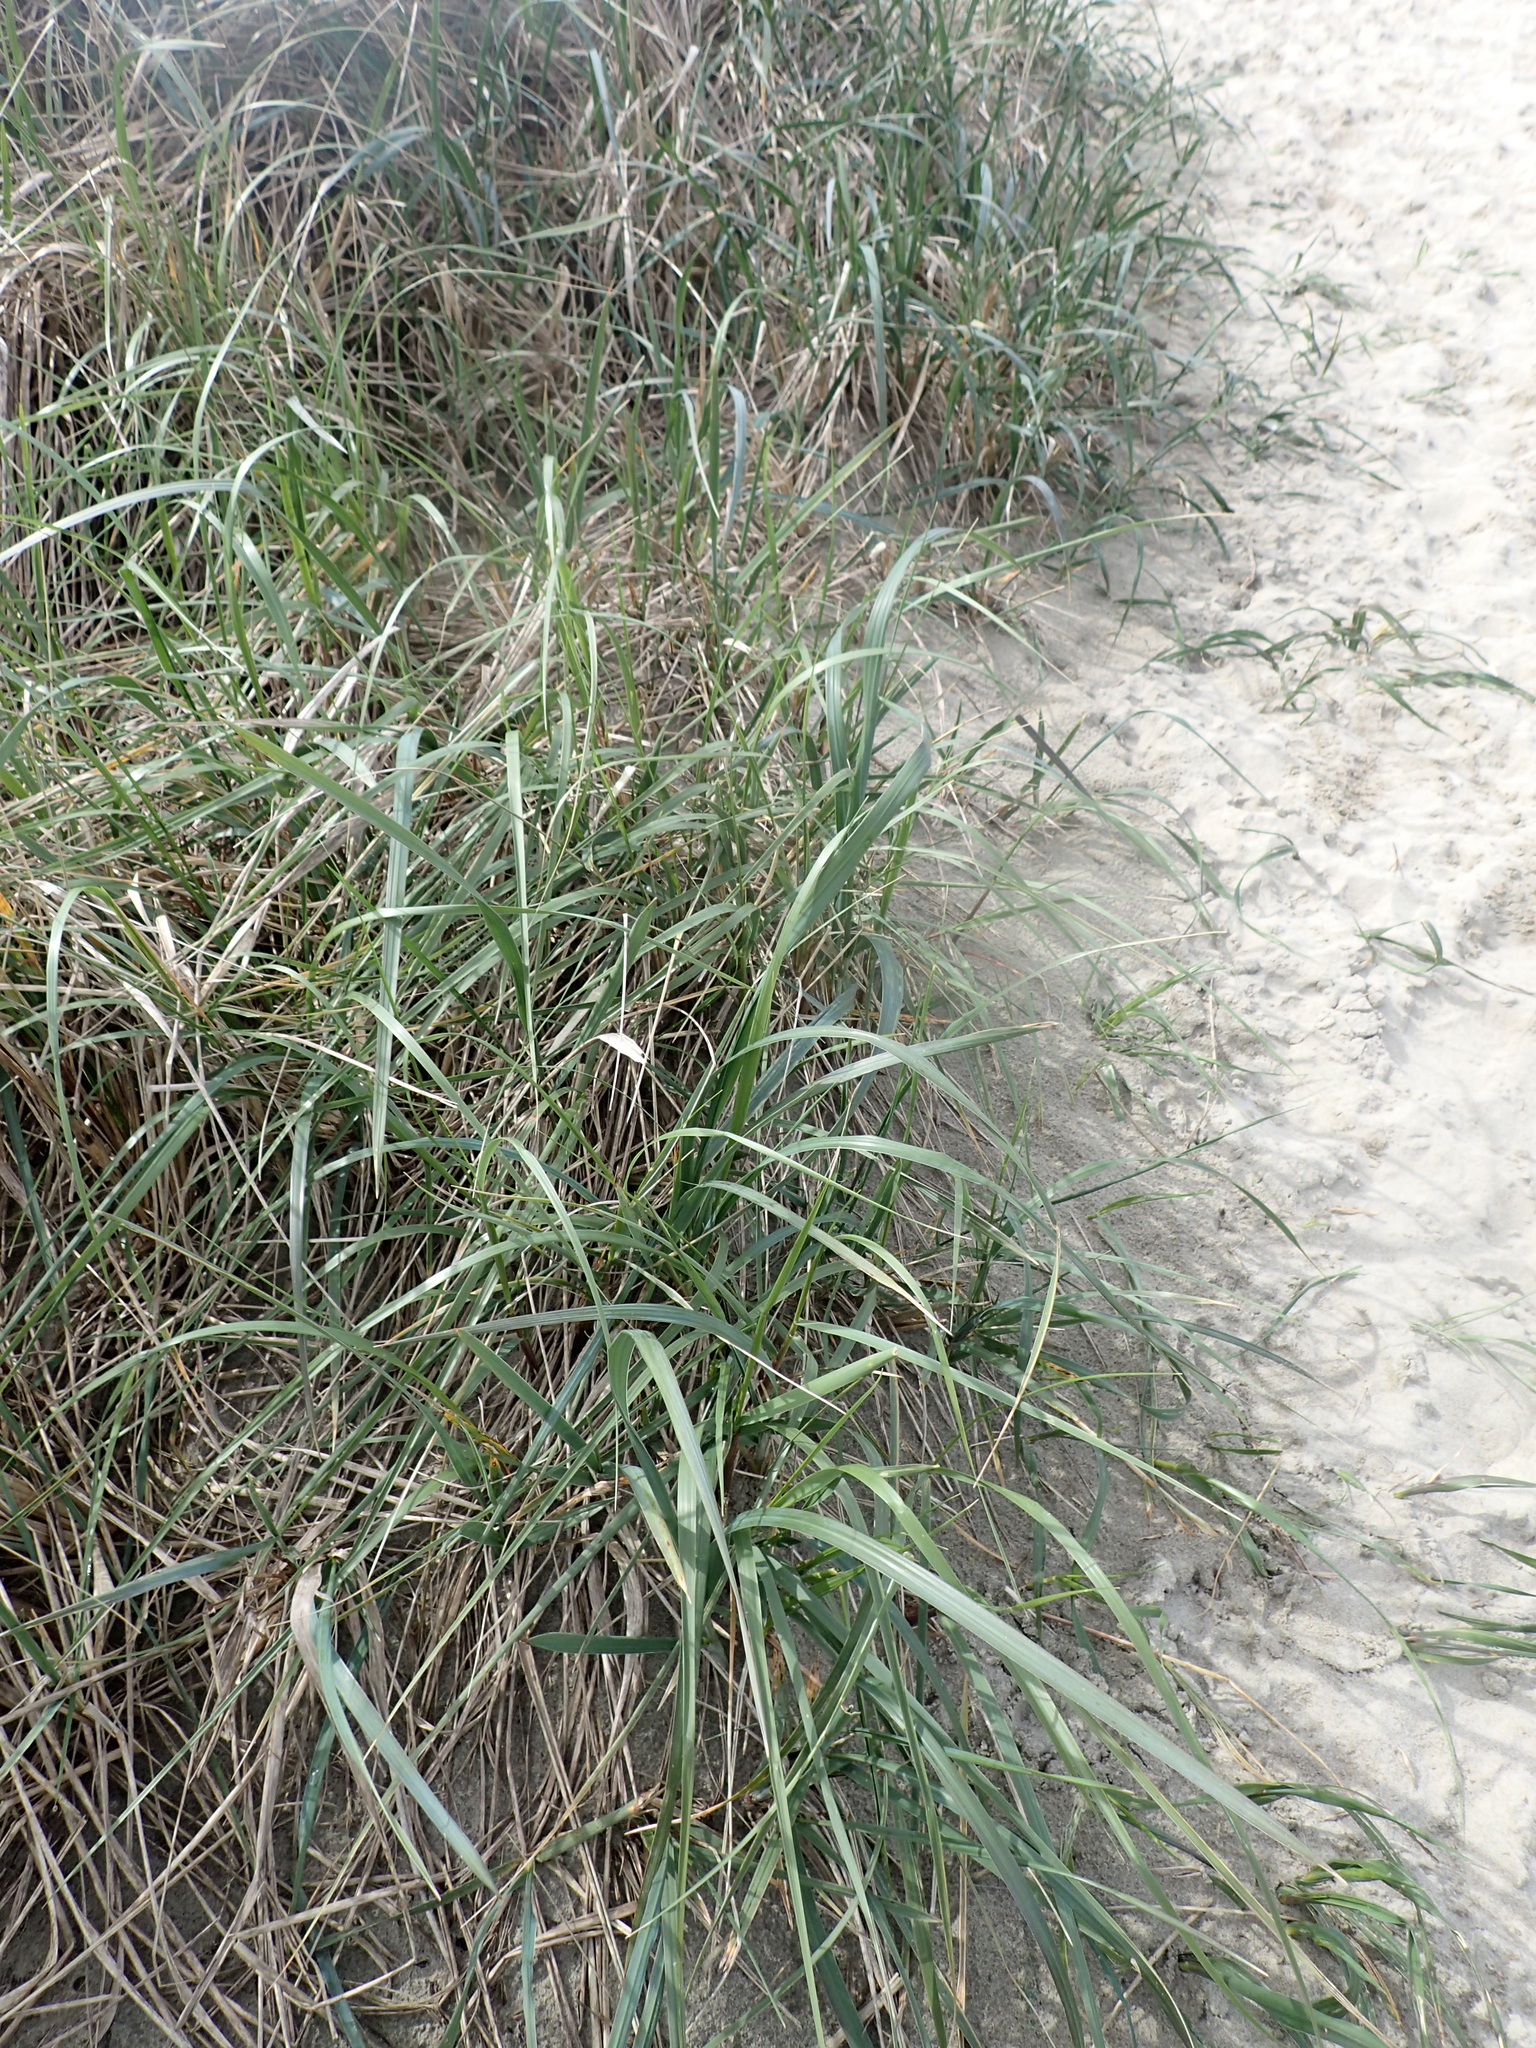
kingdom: Plantae
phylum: Tracheophyta
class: Liliopsida
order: Poales
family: Poaceae
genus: Leymus
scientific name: Leymus mollis
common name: American dune grass
